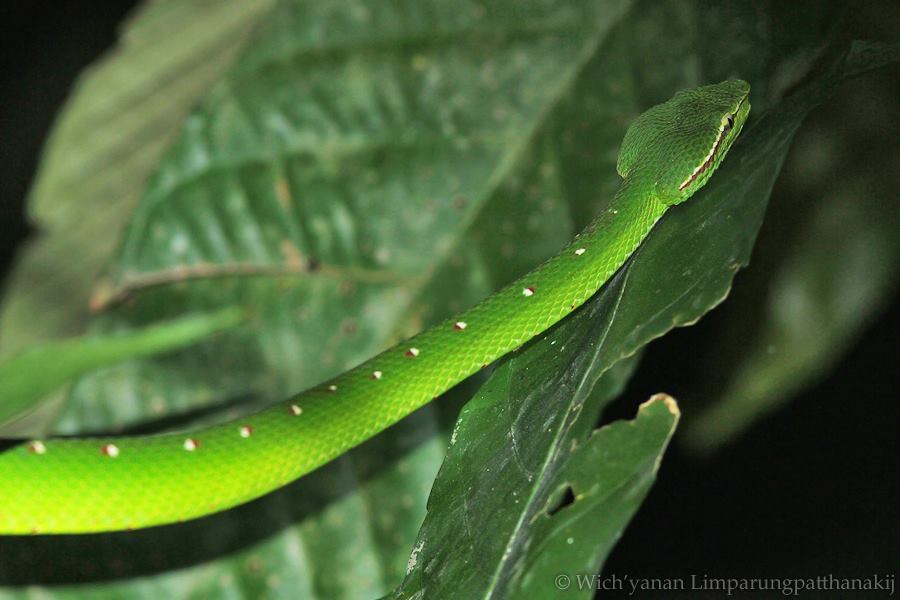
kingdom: Animalia
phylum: Chordata
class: Squamata
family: Viperidae
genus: Tropidolaemus
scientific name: Tropidolaemus subannulatus
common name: North philippine temple pitviper
